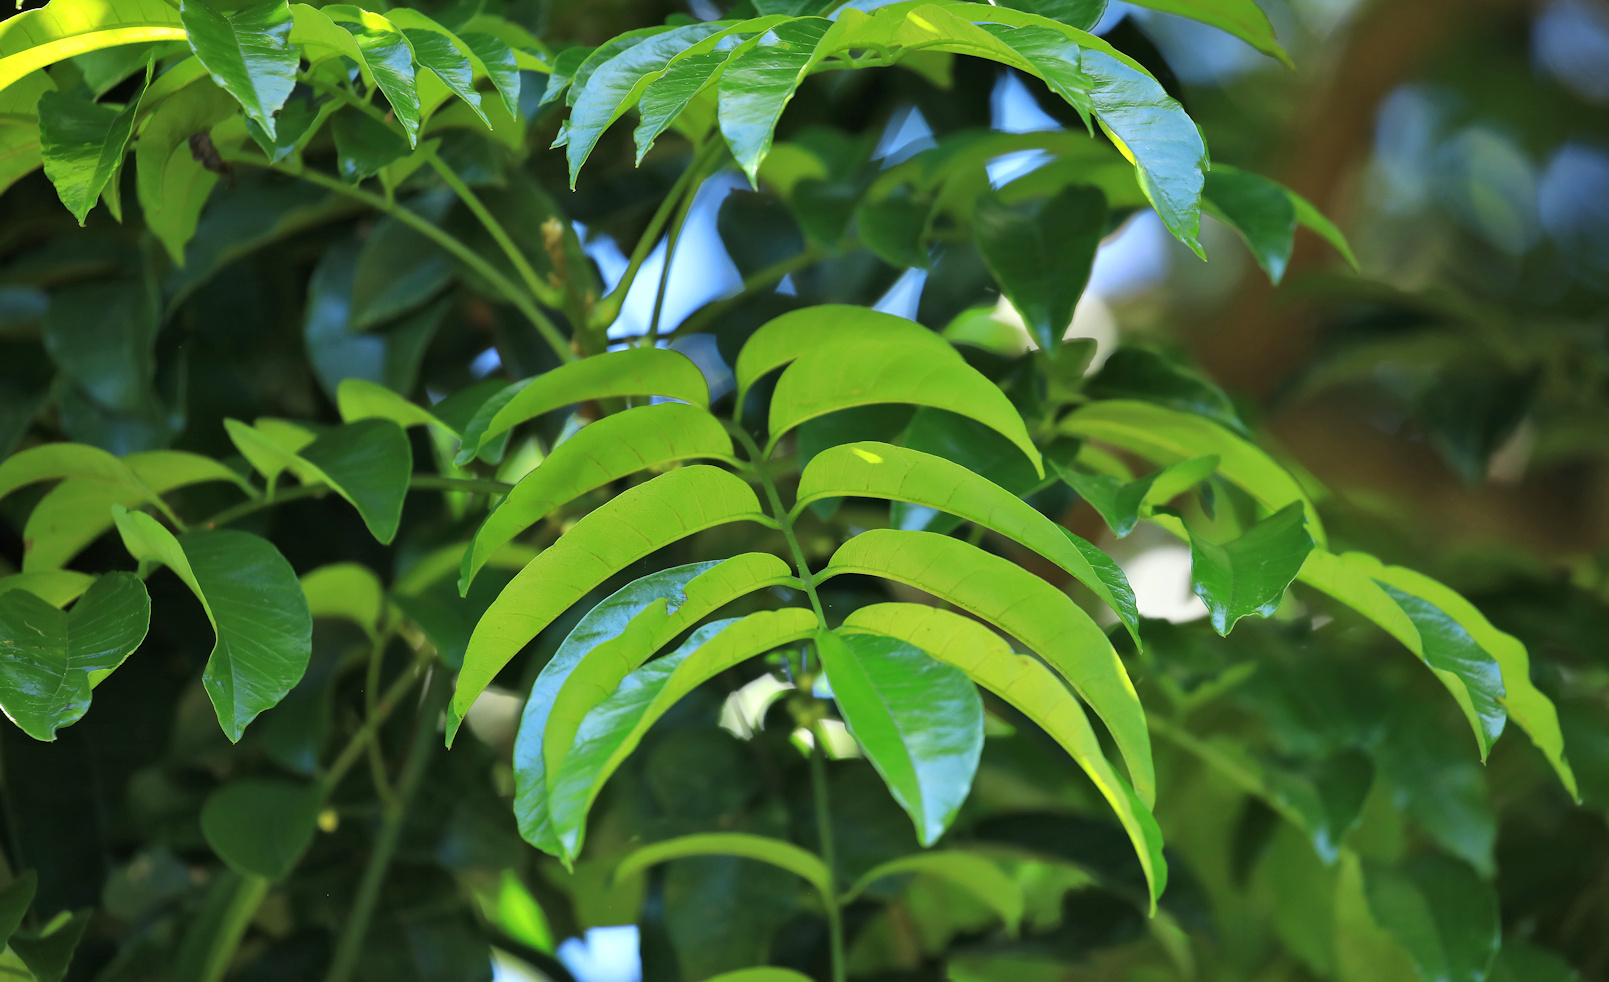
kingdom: Plantae
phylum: Tracheophyta
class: Magnoliopsida
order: Sapindales
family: Meliaceae
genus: Trichilia
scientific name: Trichilia dregeana
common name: Christmas-bells
